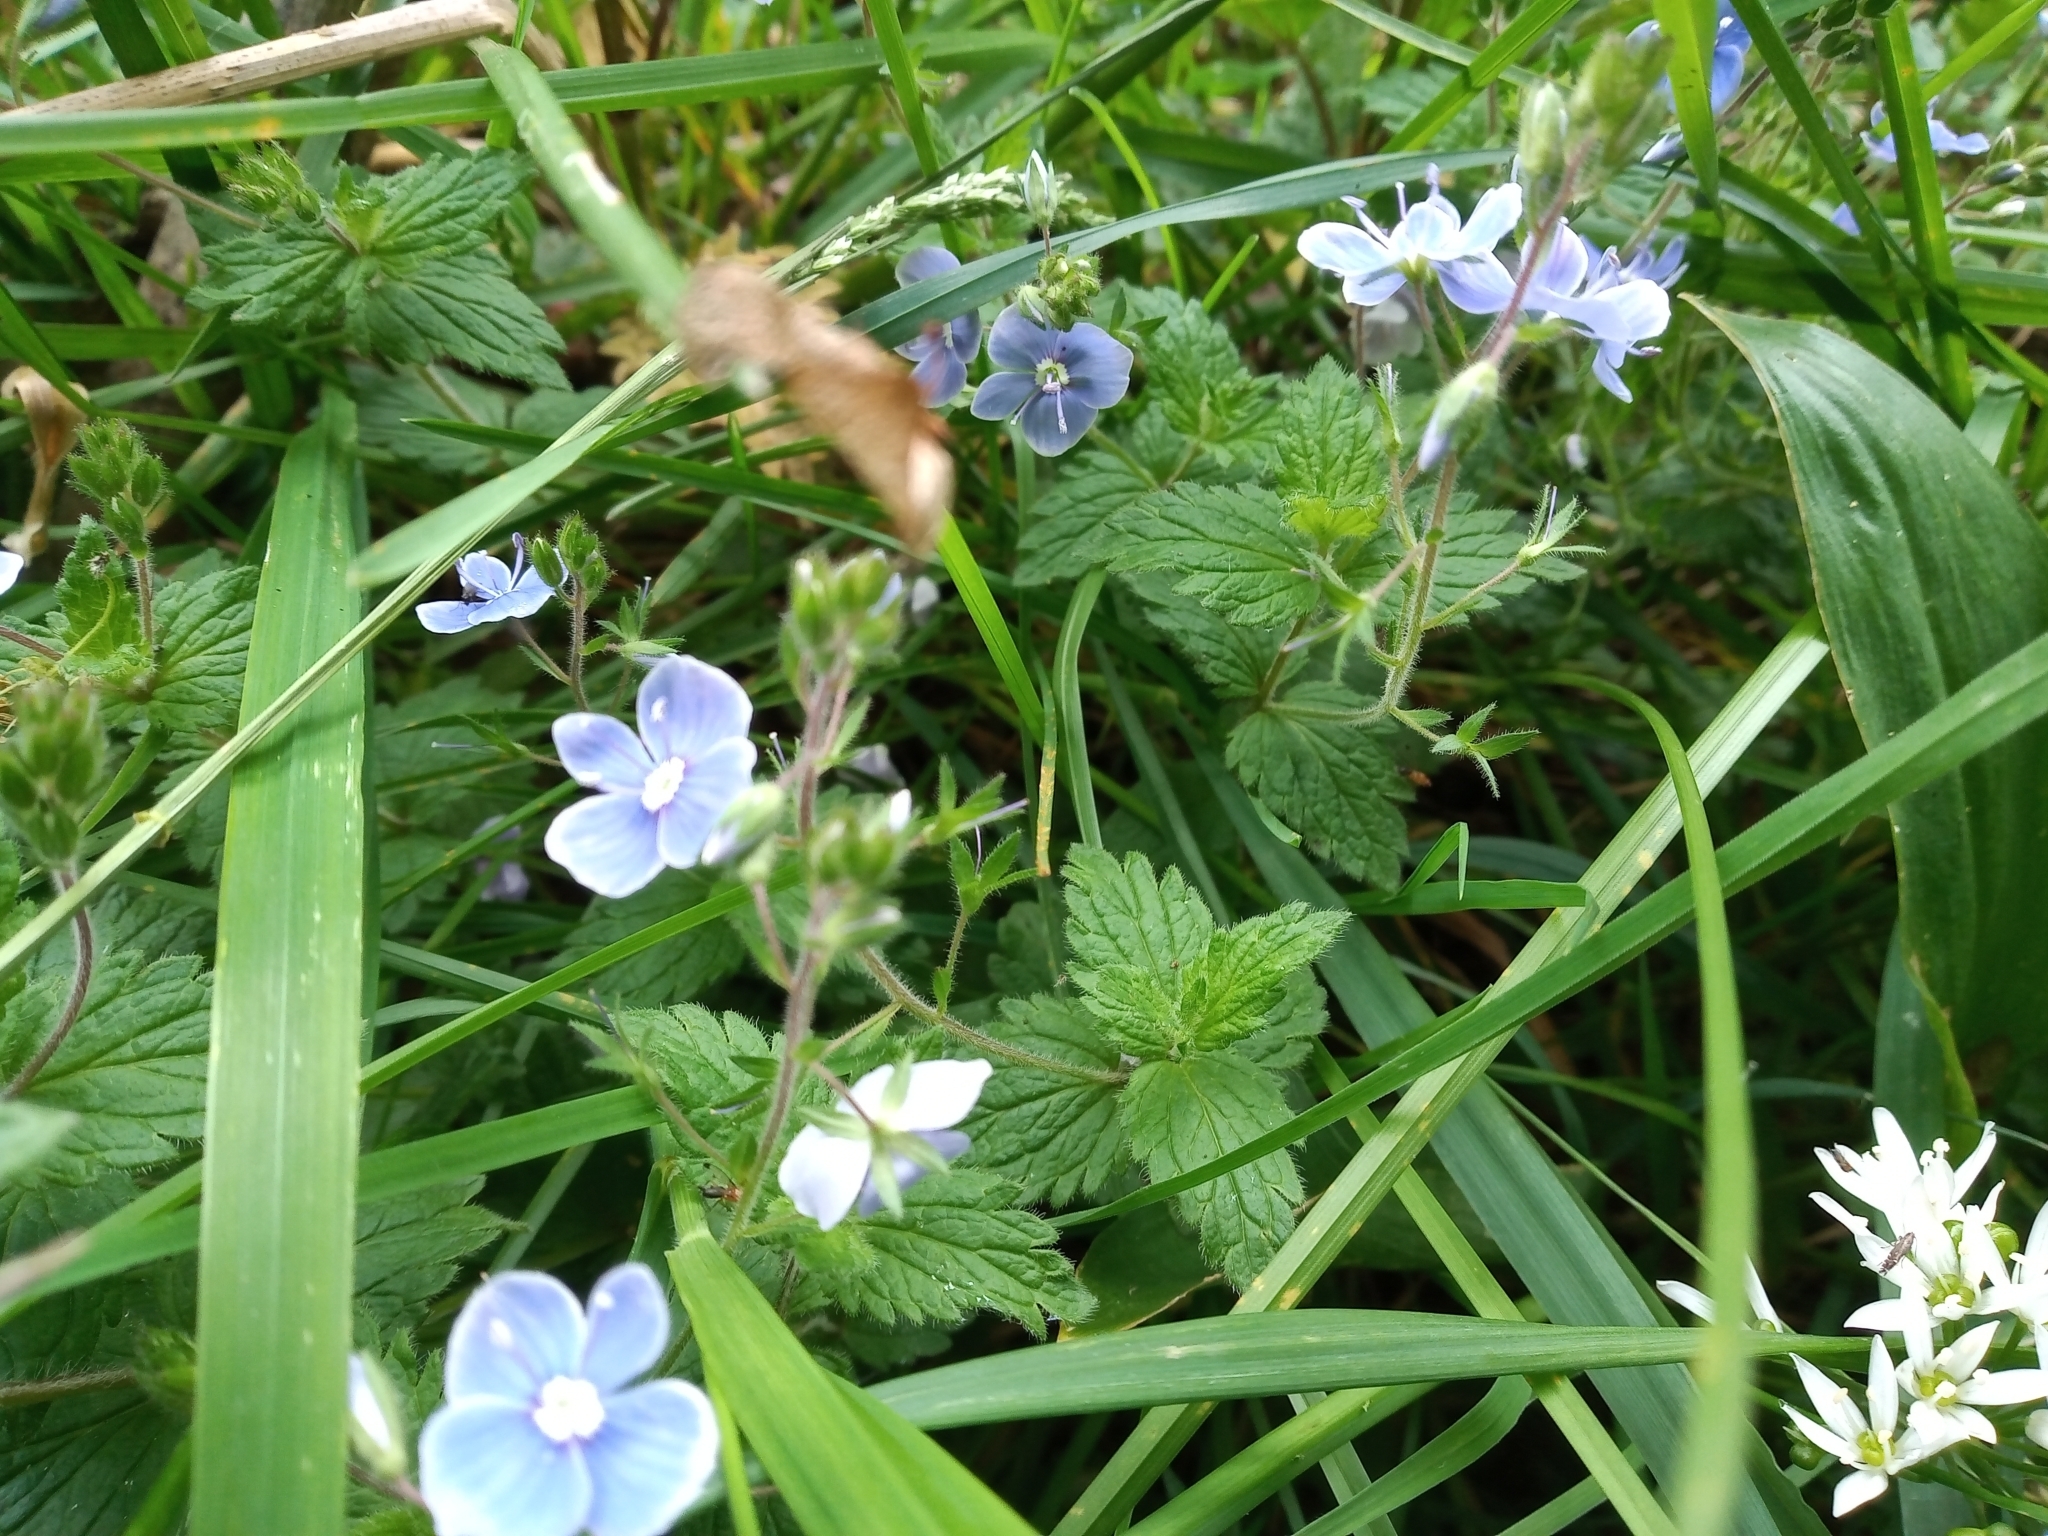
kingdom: Plantae
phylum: Tracheophyta
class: Magnoliopsida
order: Lamiales
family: Plantaginaceae
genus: Veronica
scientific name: Veronica chamaedrys
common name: Germander speedwell
